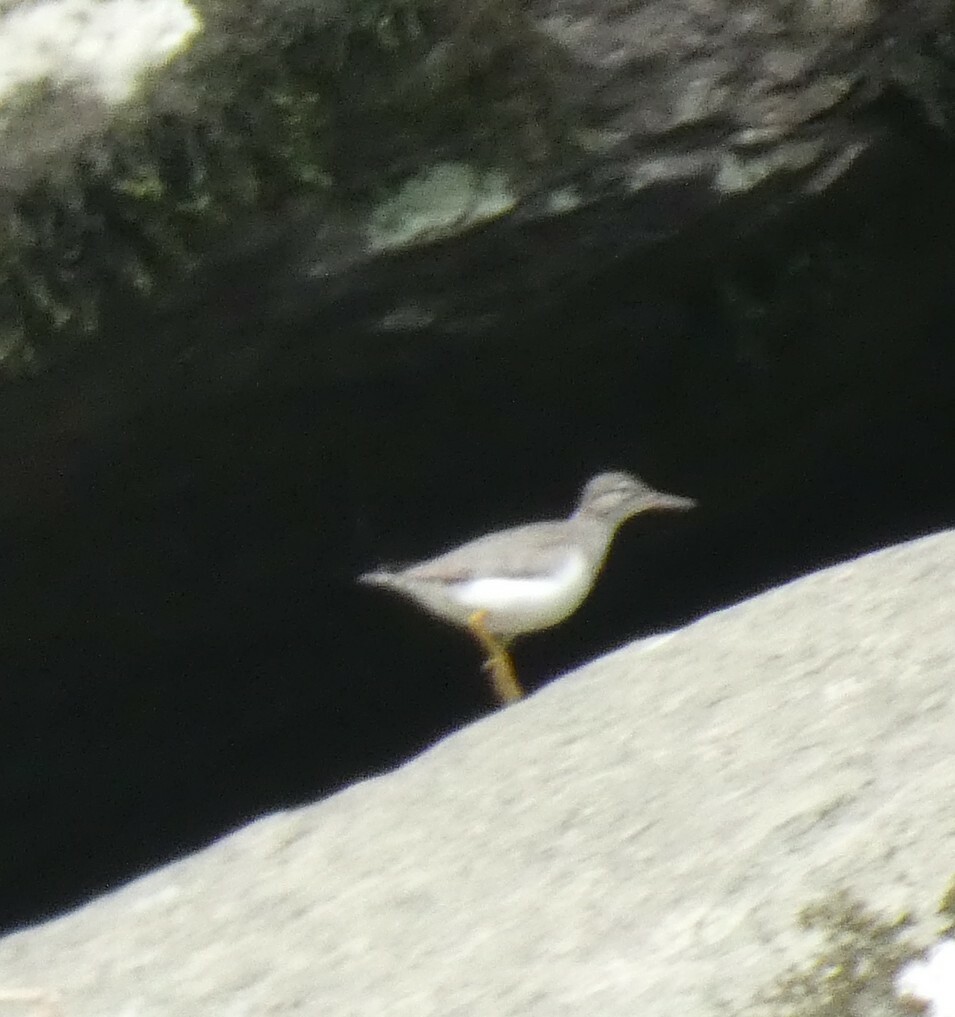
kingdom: Animalia
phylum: Chordata
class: Aves
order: Charadriiformes
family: Scolopacidae
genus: Actitis
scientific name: Actitis macularius
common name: Spotted sandpiper
